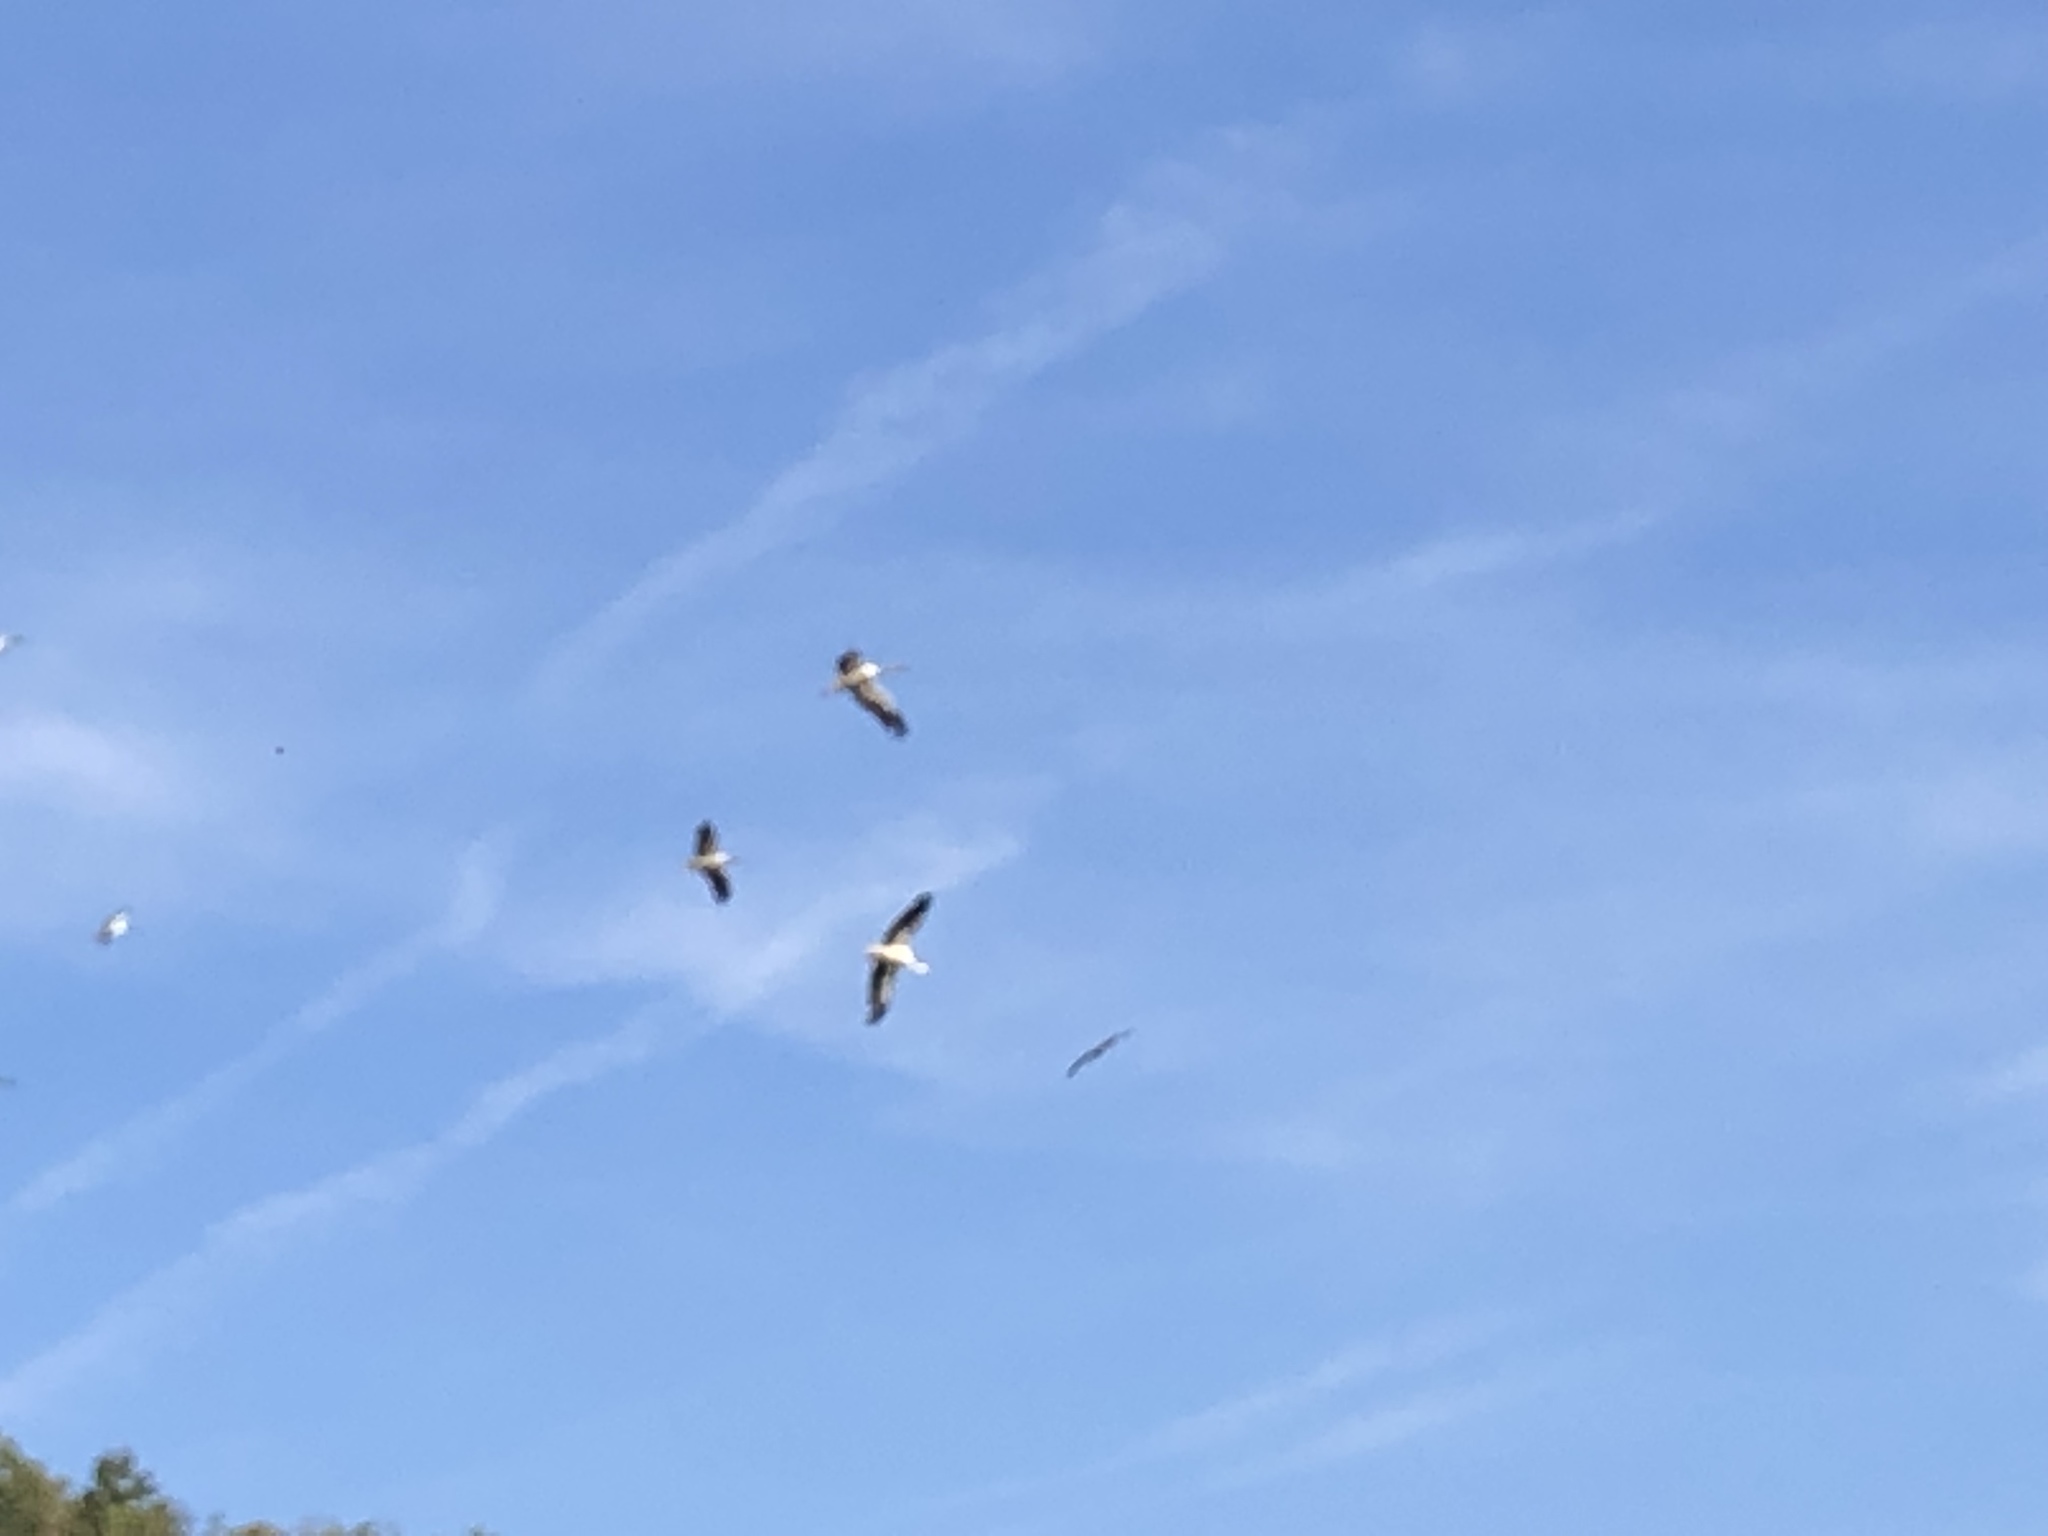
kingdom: Animalia
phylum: Chordata
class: Aves
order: Ciconiiformes
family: Ciconiidae
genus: Ciconia
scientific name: Ciconia ciconia
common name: White stork
